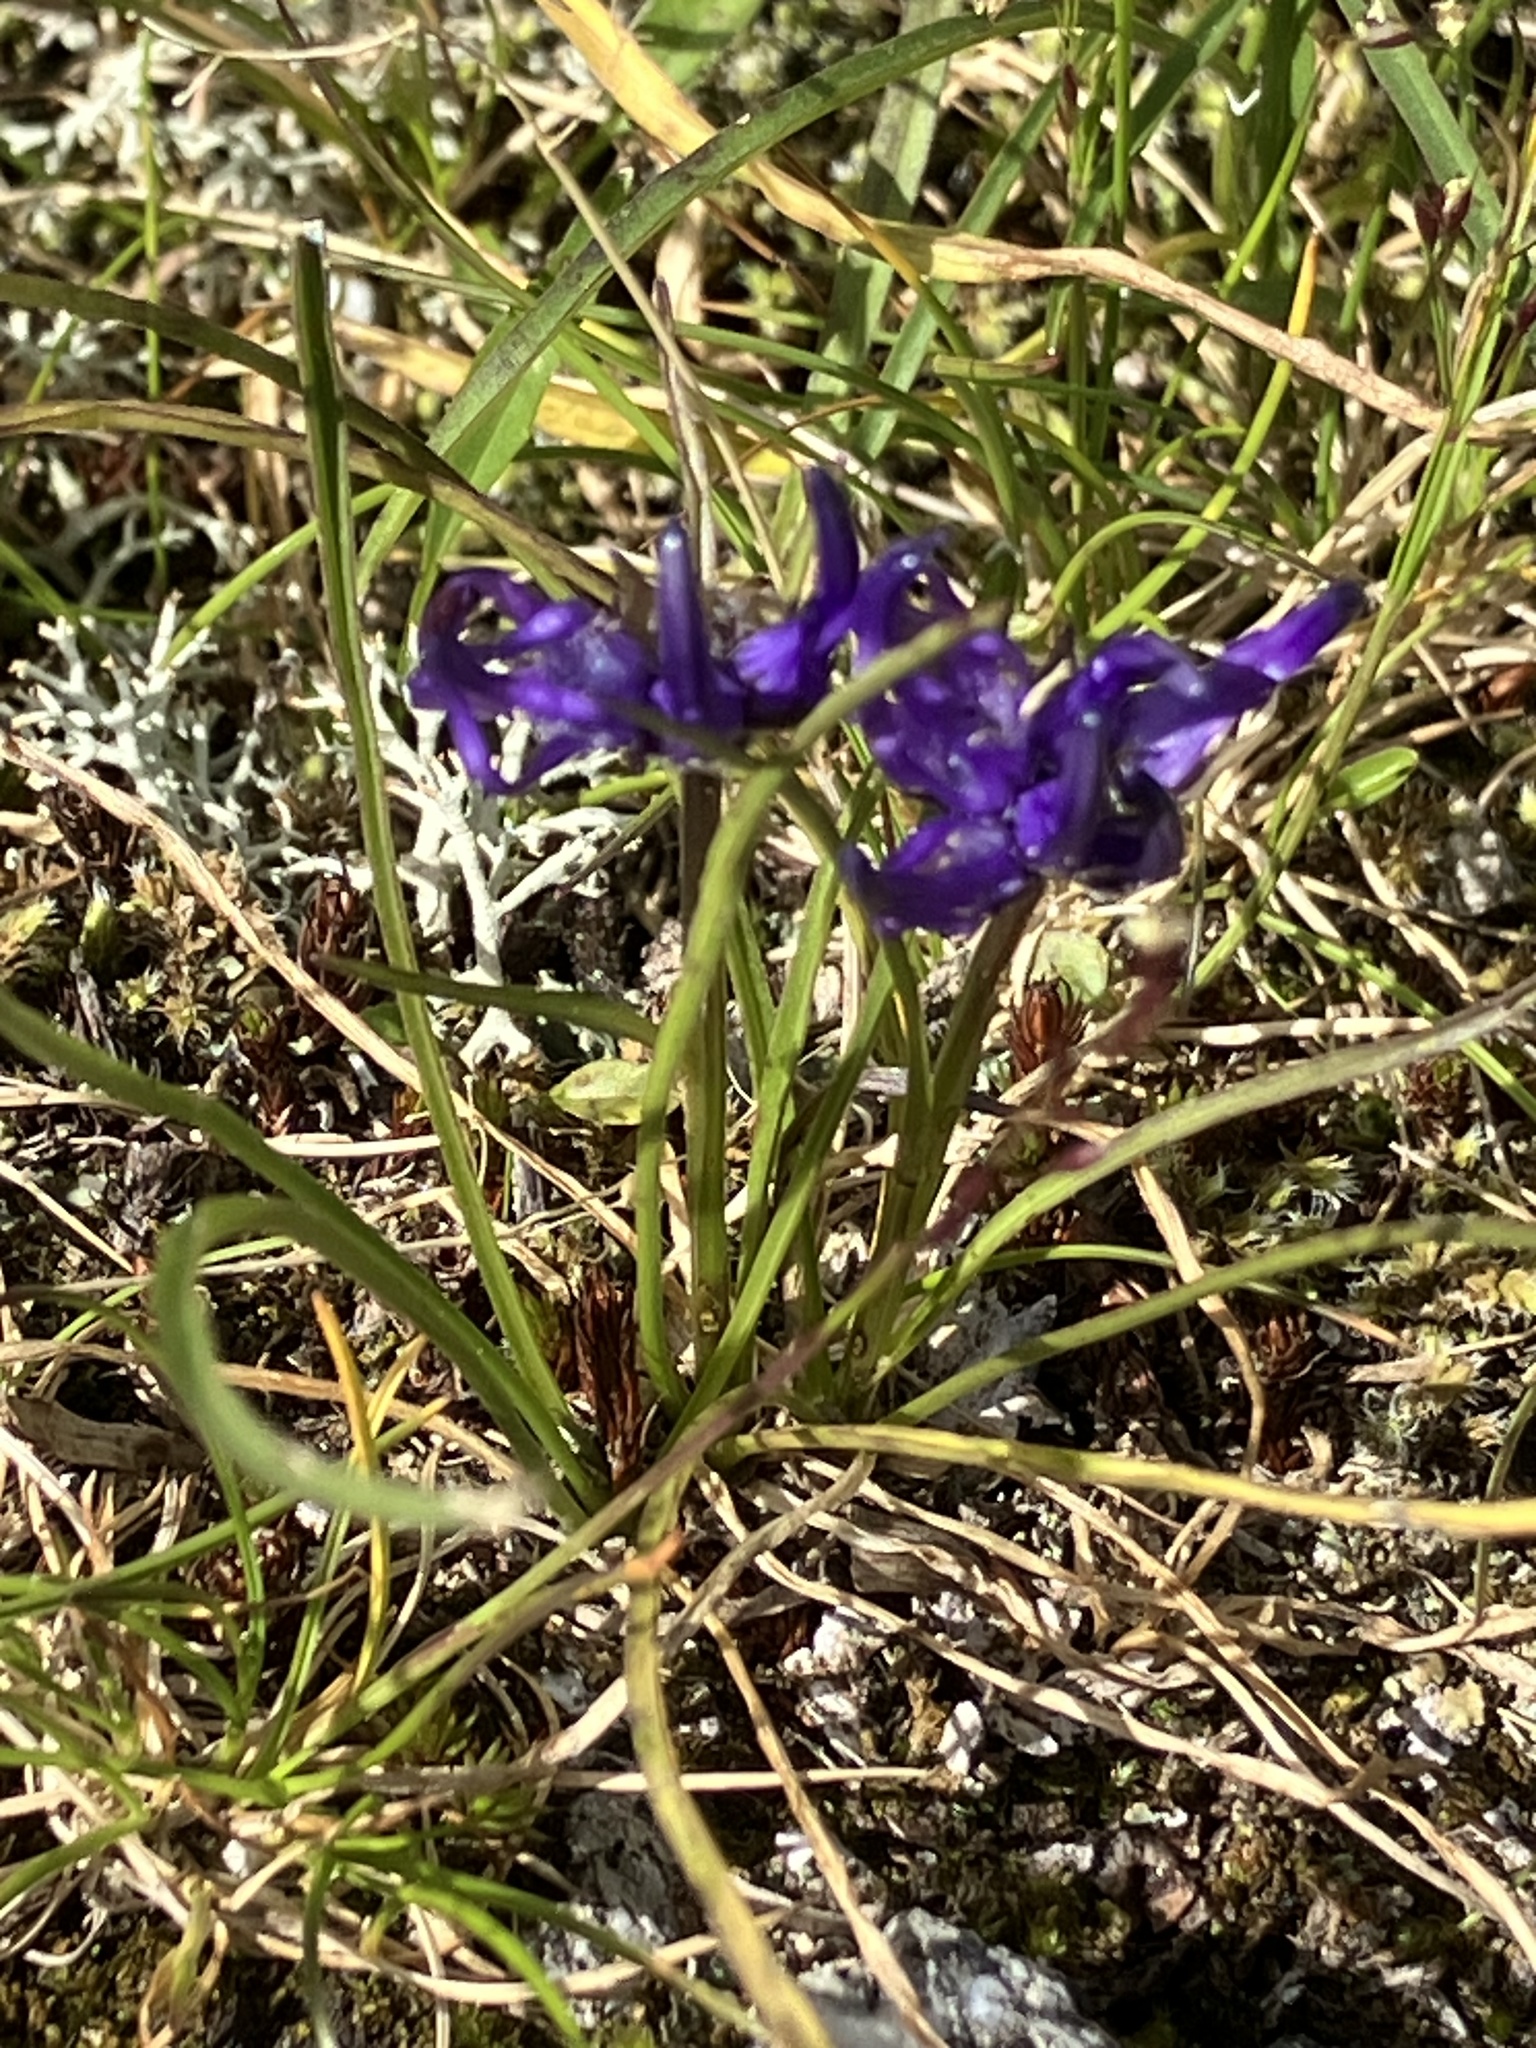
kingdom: Plantae
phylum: Tracheophyta
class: Magnoliopsida
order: Asterales
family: Campanulaceae
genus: Phyteuma
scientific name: Phyteuma hemisphaericum
